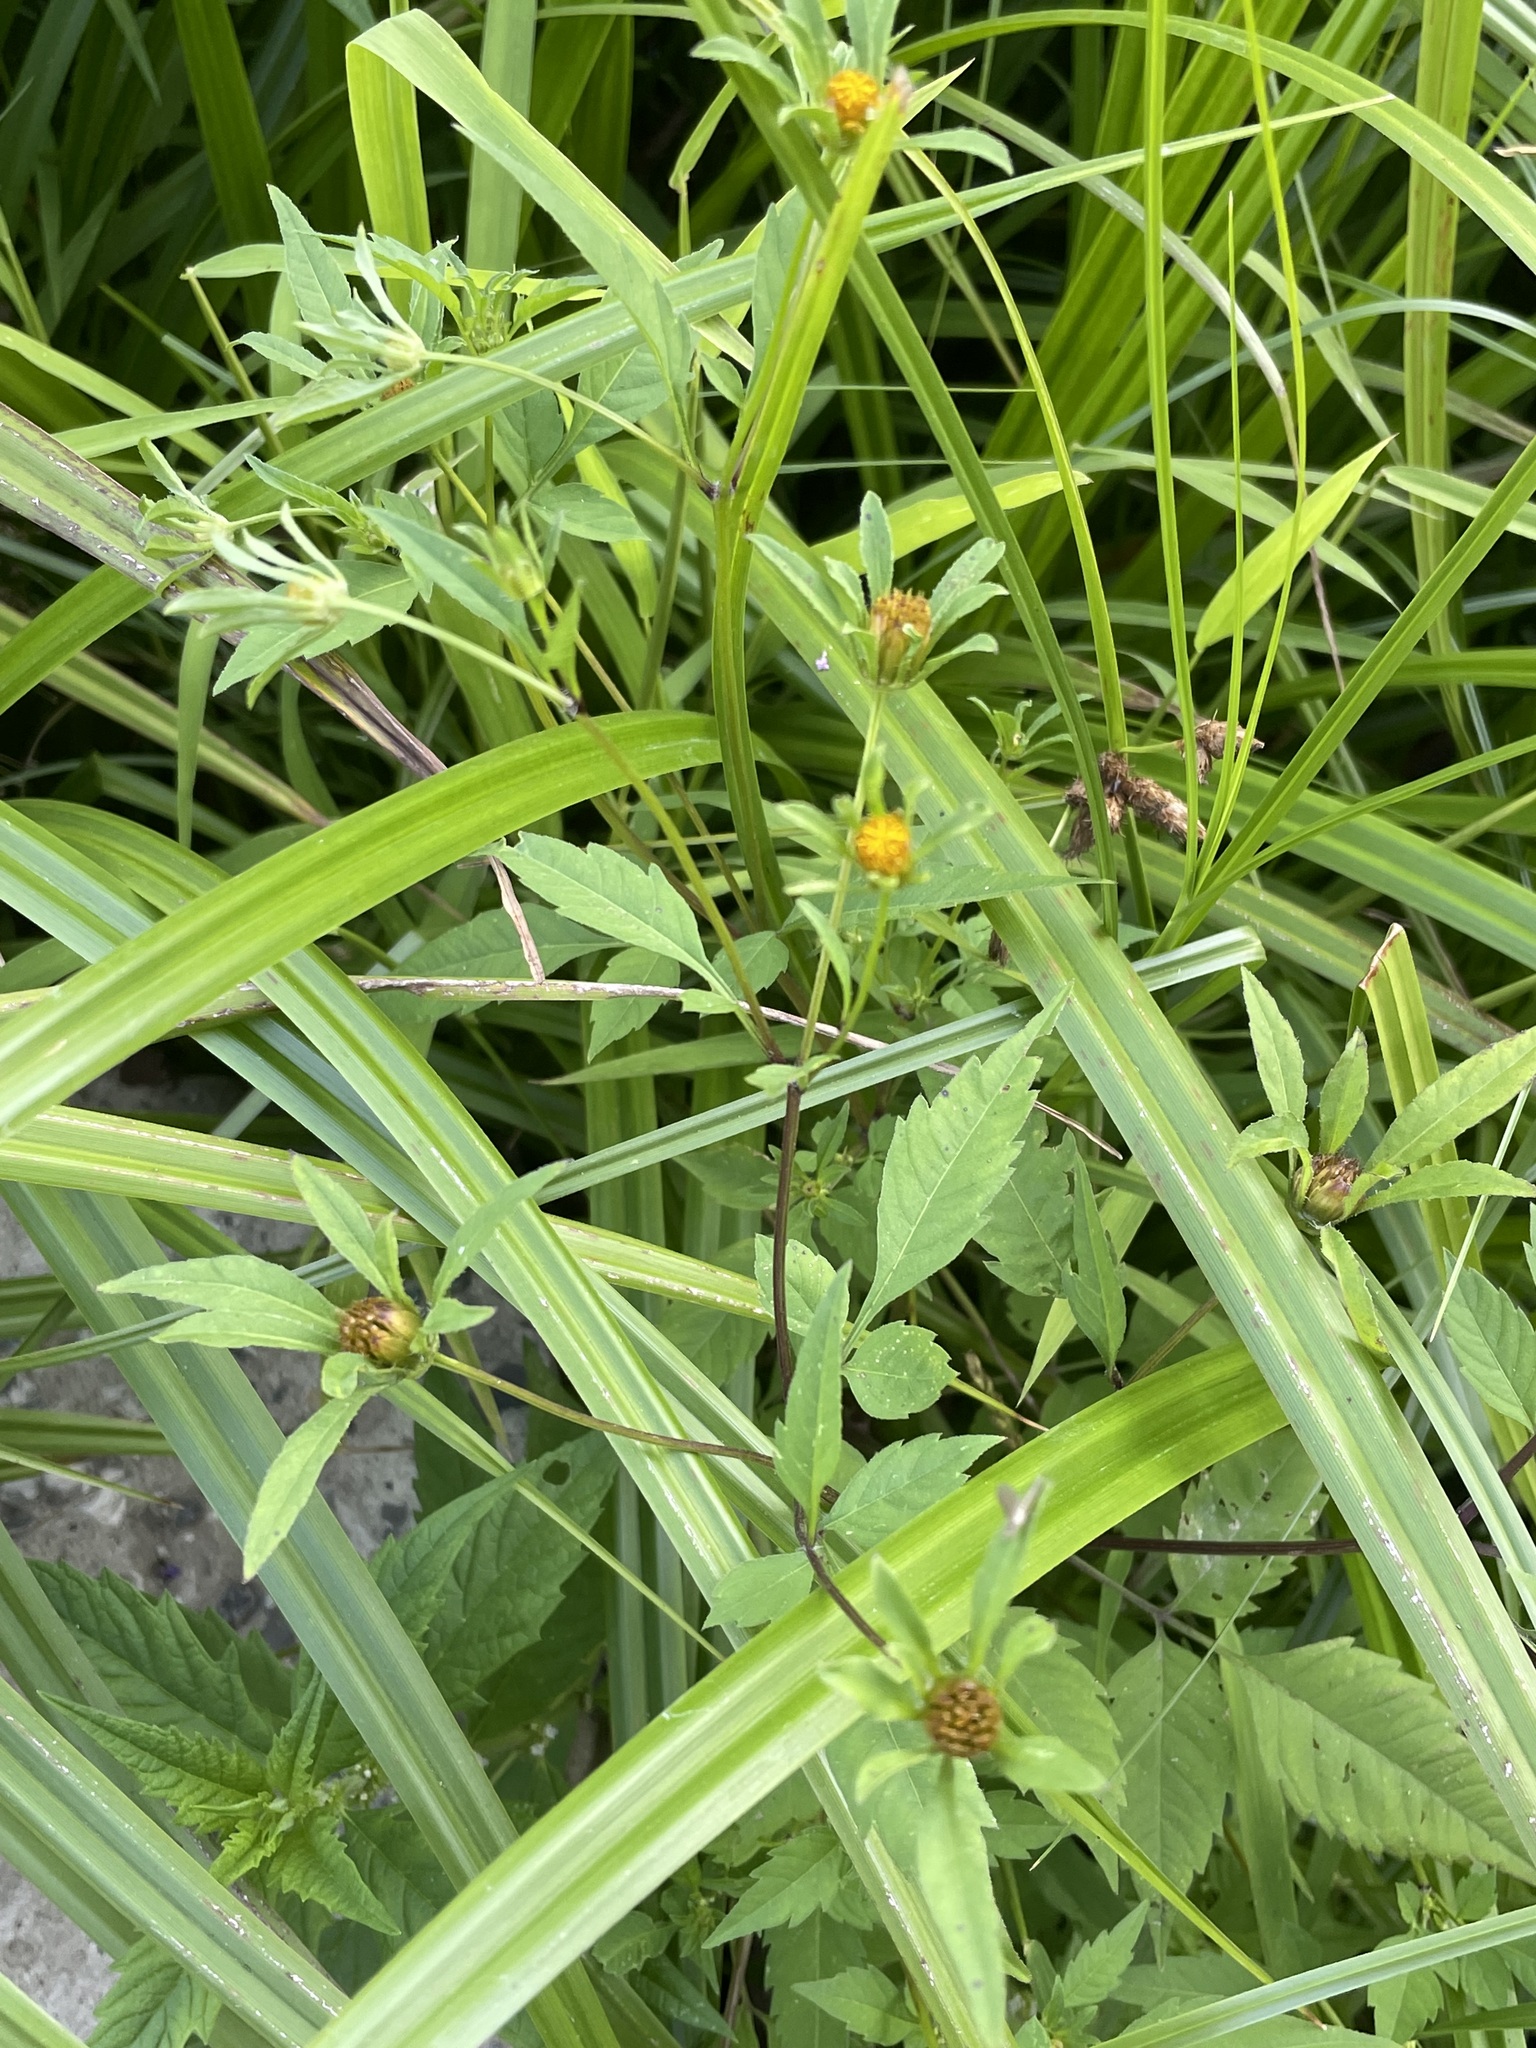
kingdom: Plantae
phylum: Tracheophyta
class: Magnoliopsida
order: Asterales
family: Asteraceae
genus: Bidens
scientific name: Bidens frondosa
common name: Beggarticks
